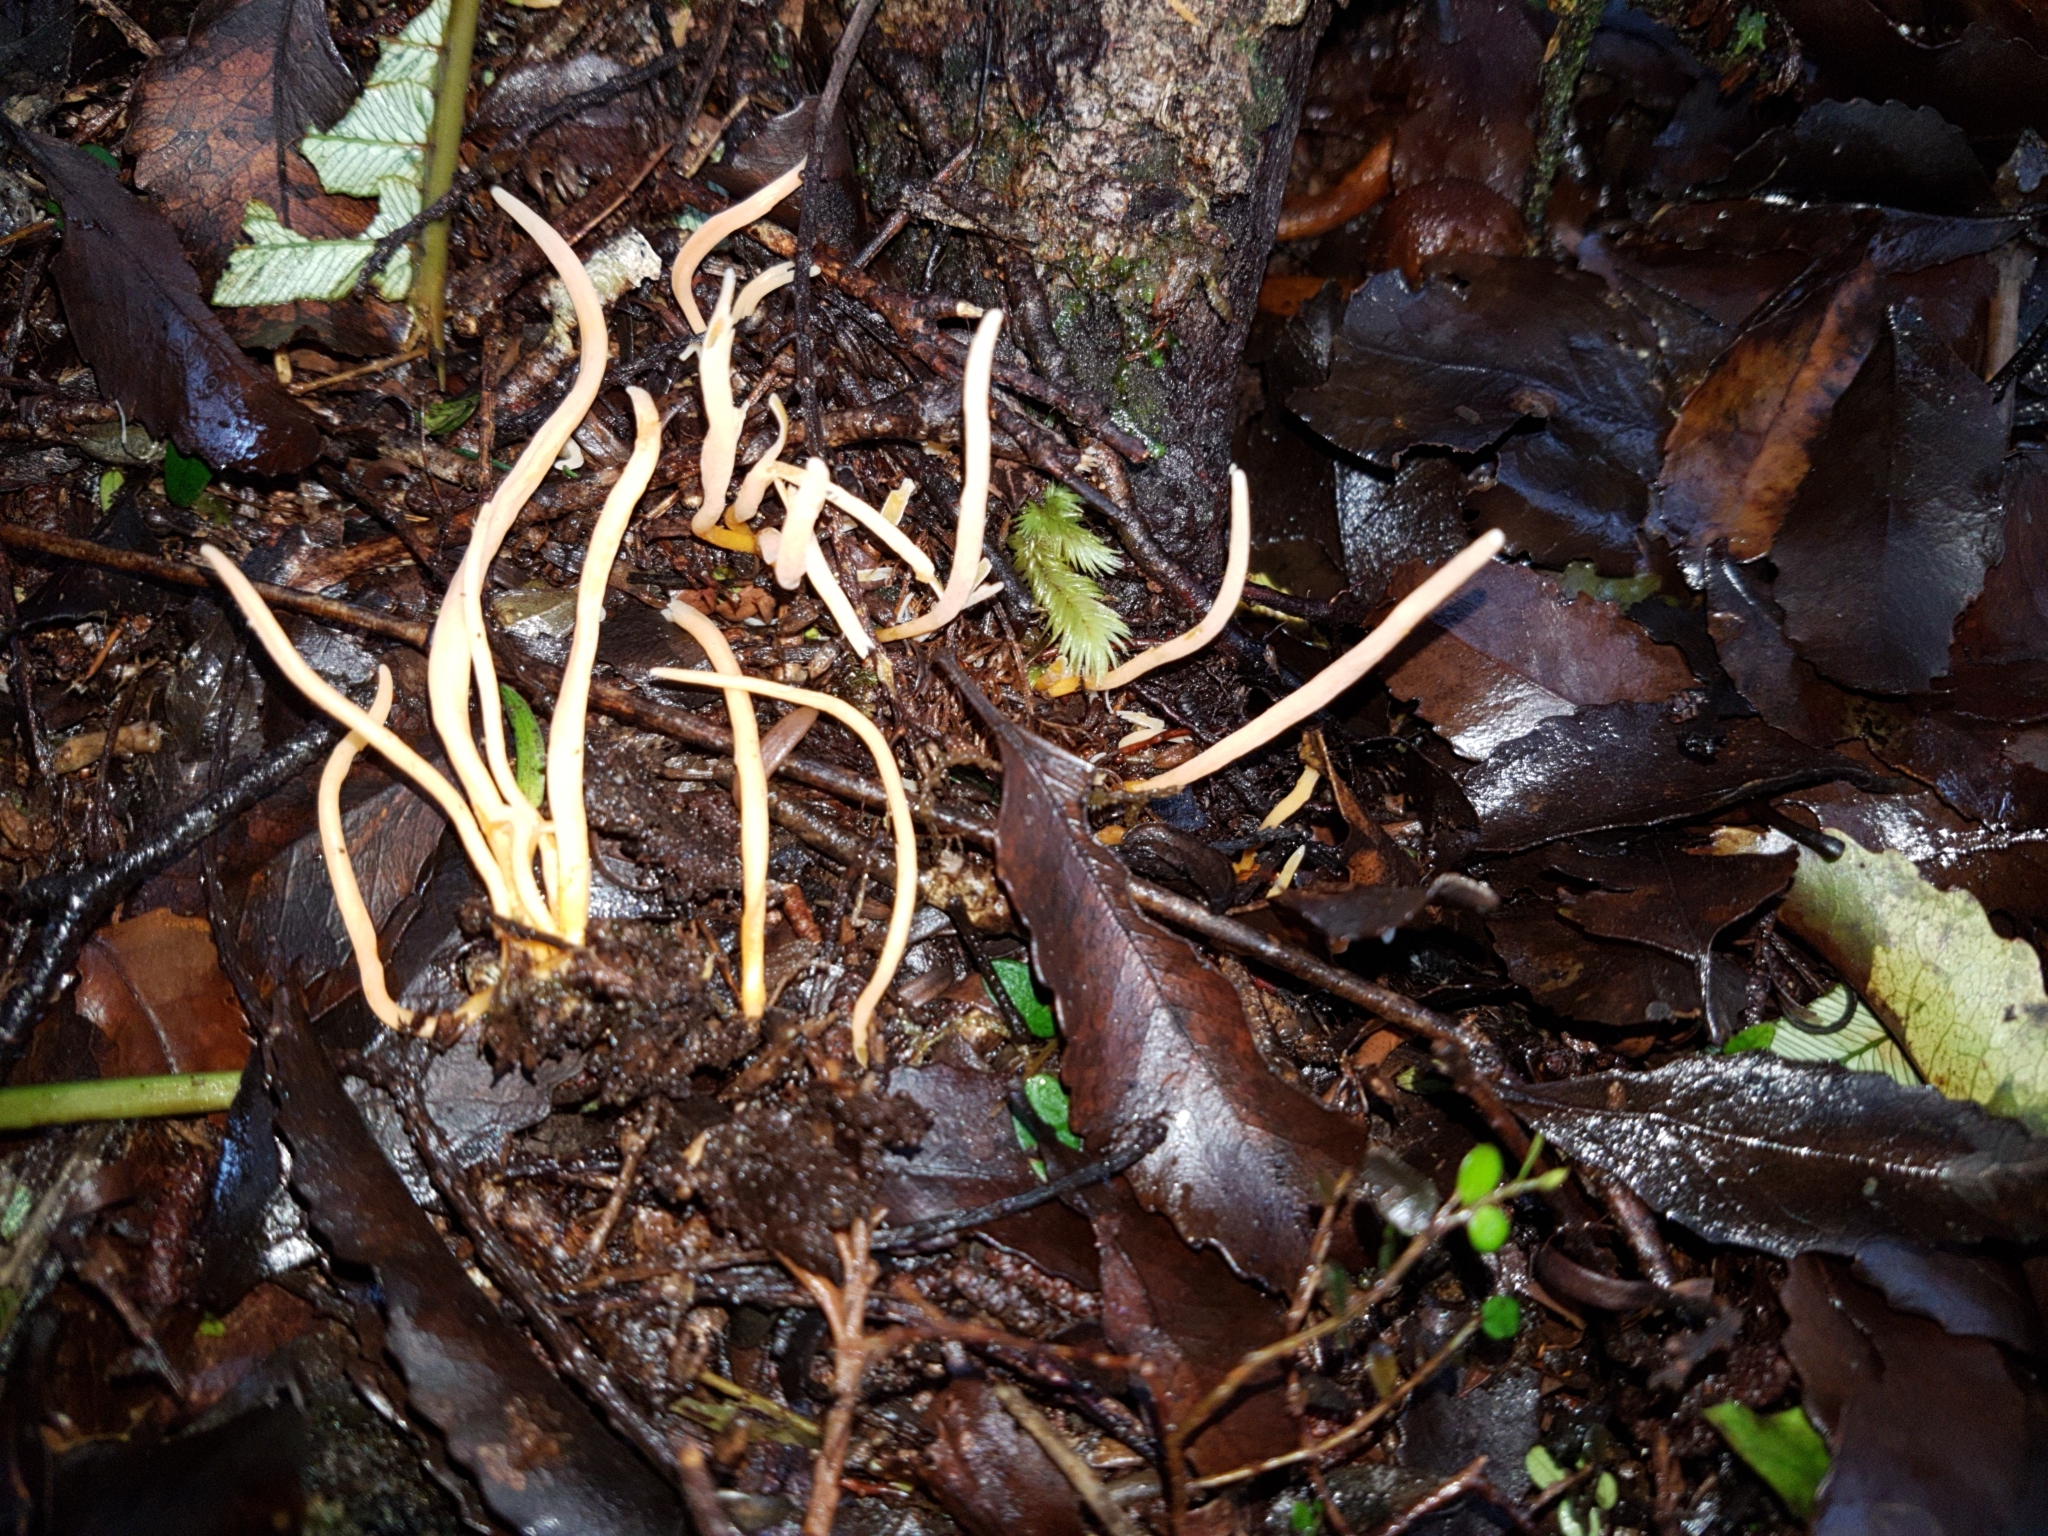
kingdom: Fungi
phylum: Basidiomycota
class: Agaricomycetes
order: Agaricales
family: Clavariaceae
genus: Clavulinopsis
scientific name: Clavulinopsis
